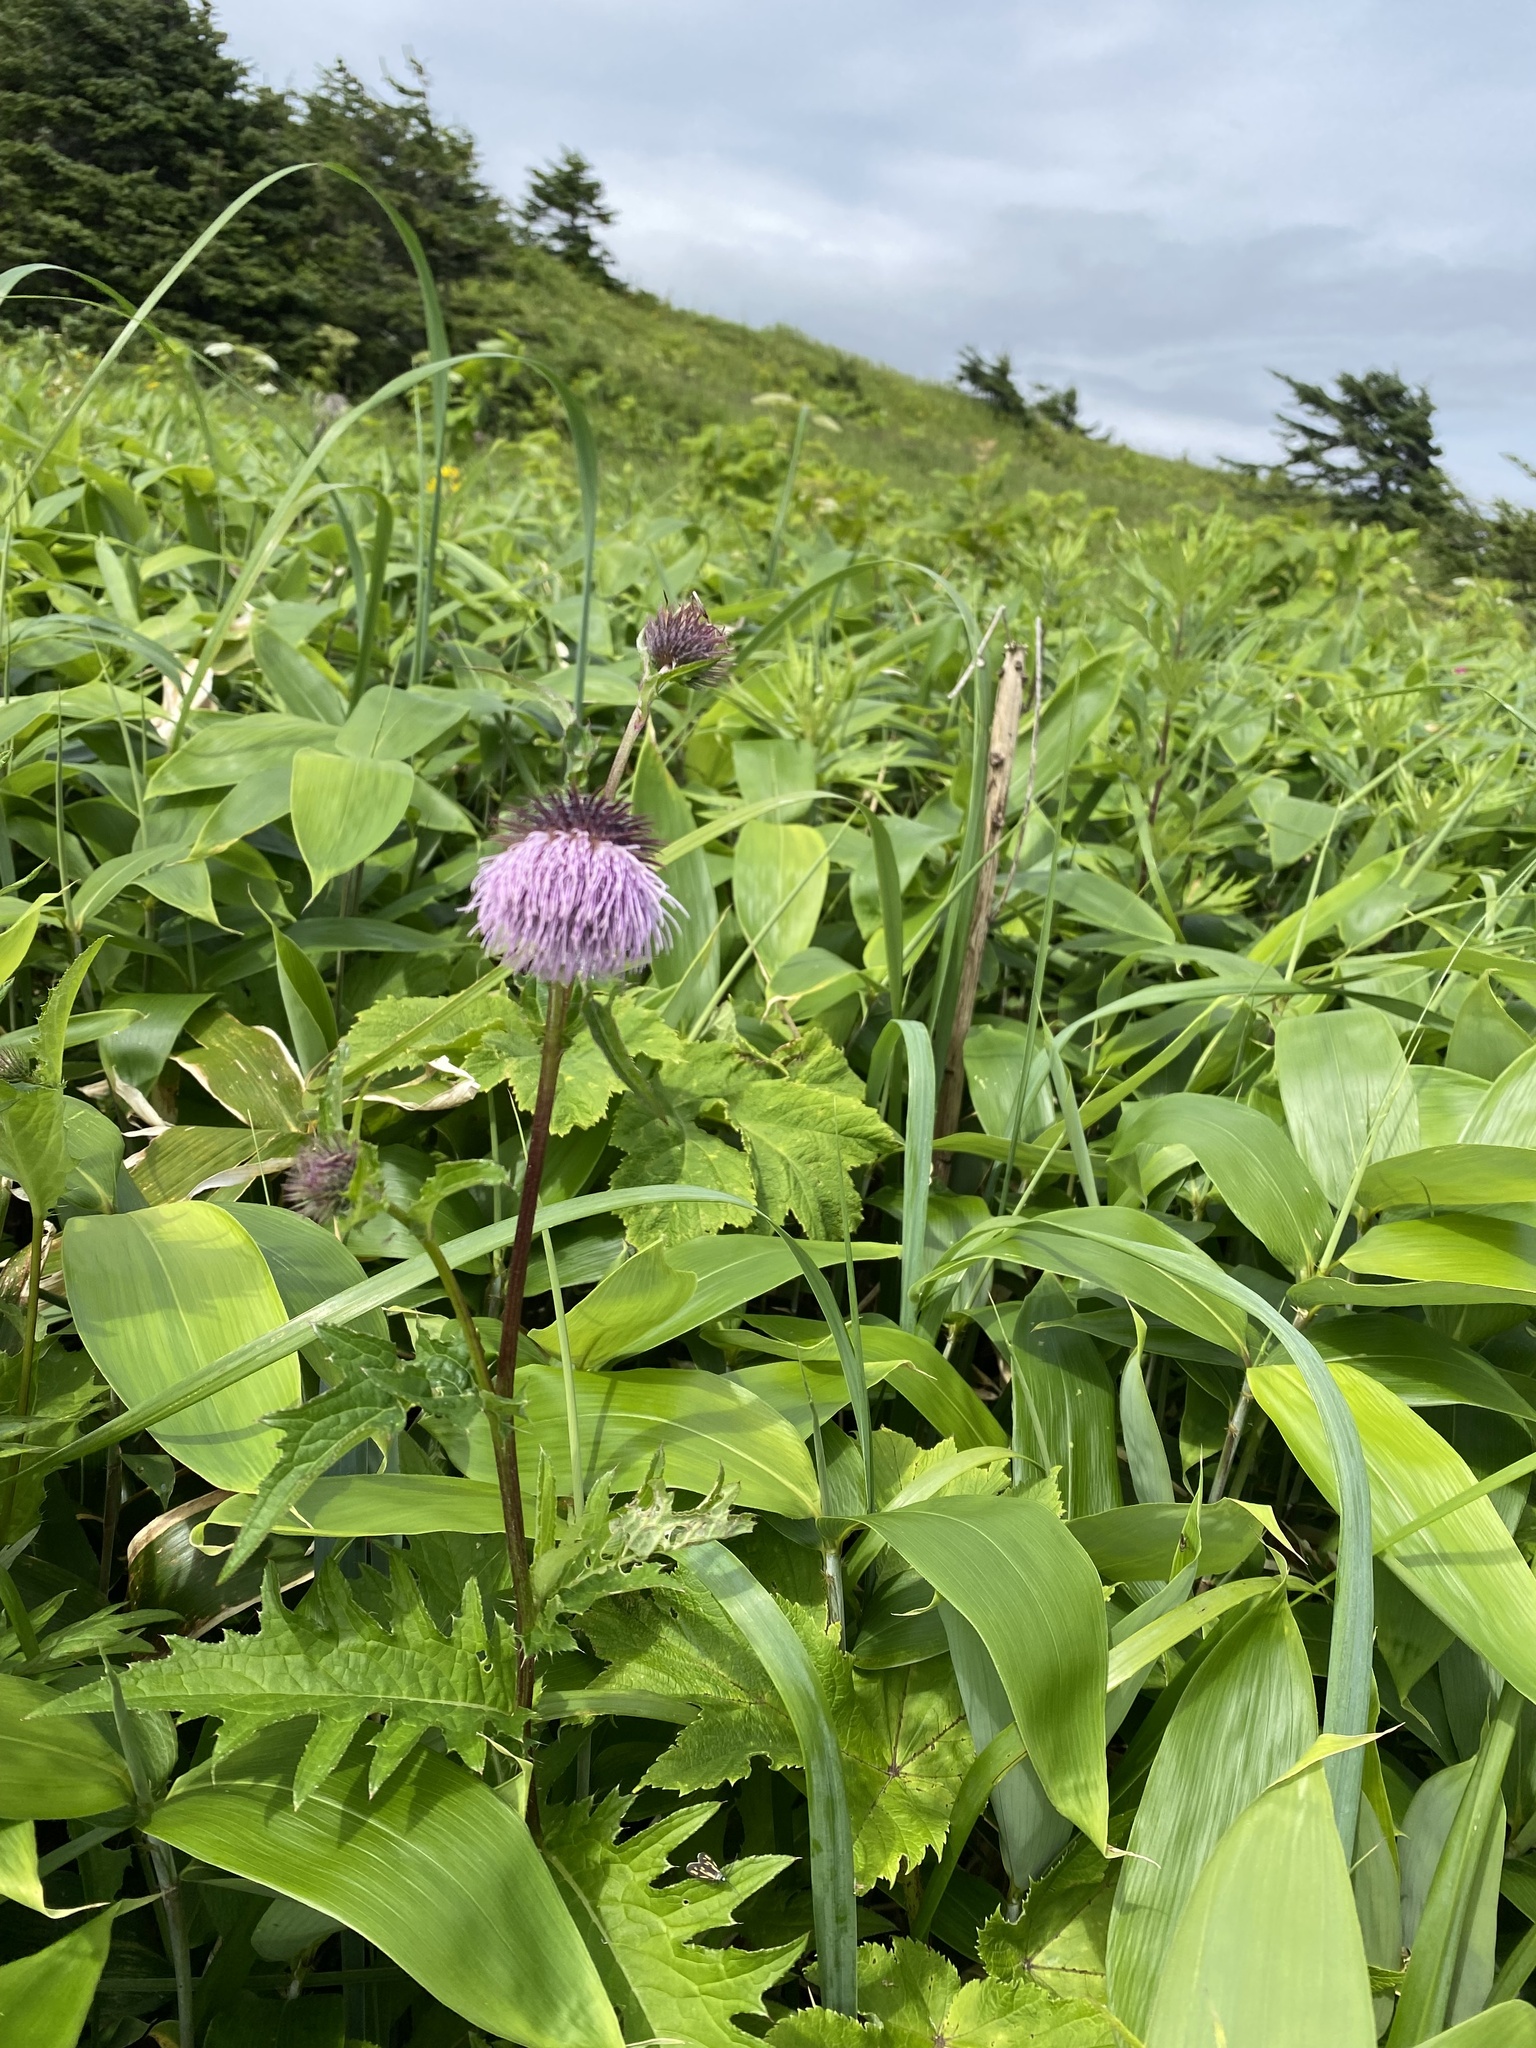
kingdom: Plantae
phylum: Tracheophyta
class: Magnoliopsida
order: Asterales
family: Asteraceae
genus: Cirsium
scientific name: Cirsium kamtschaticum
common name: Kamchatka thistle
